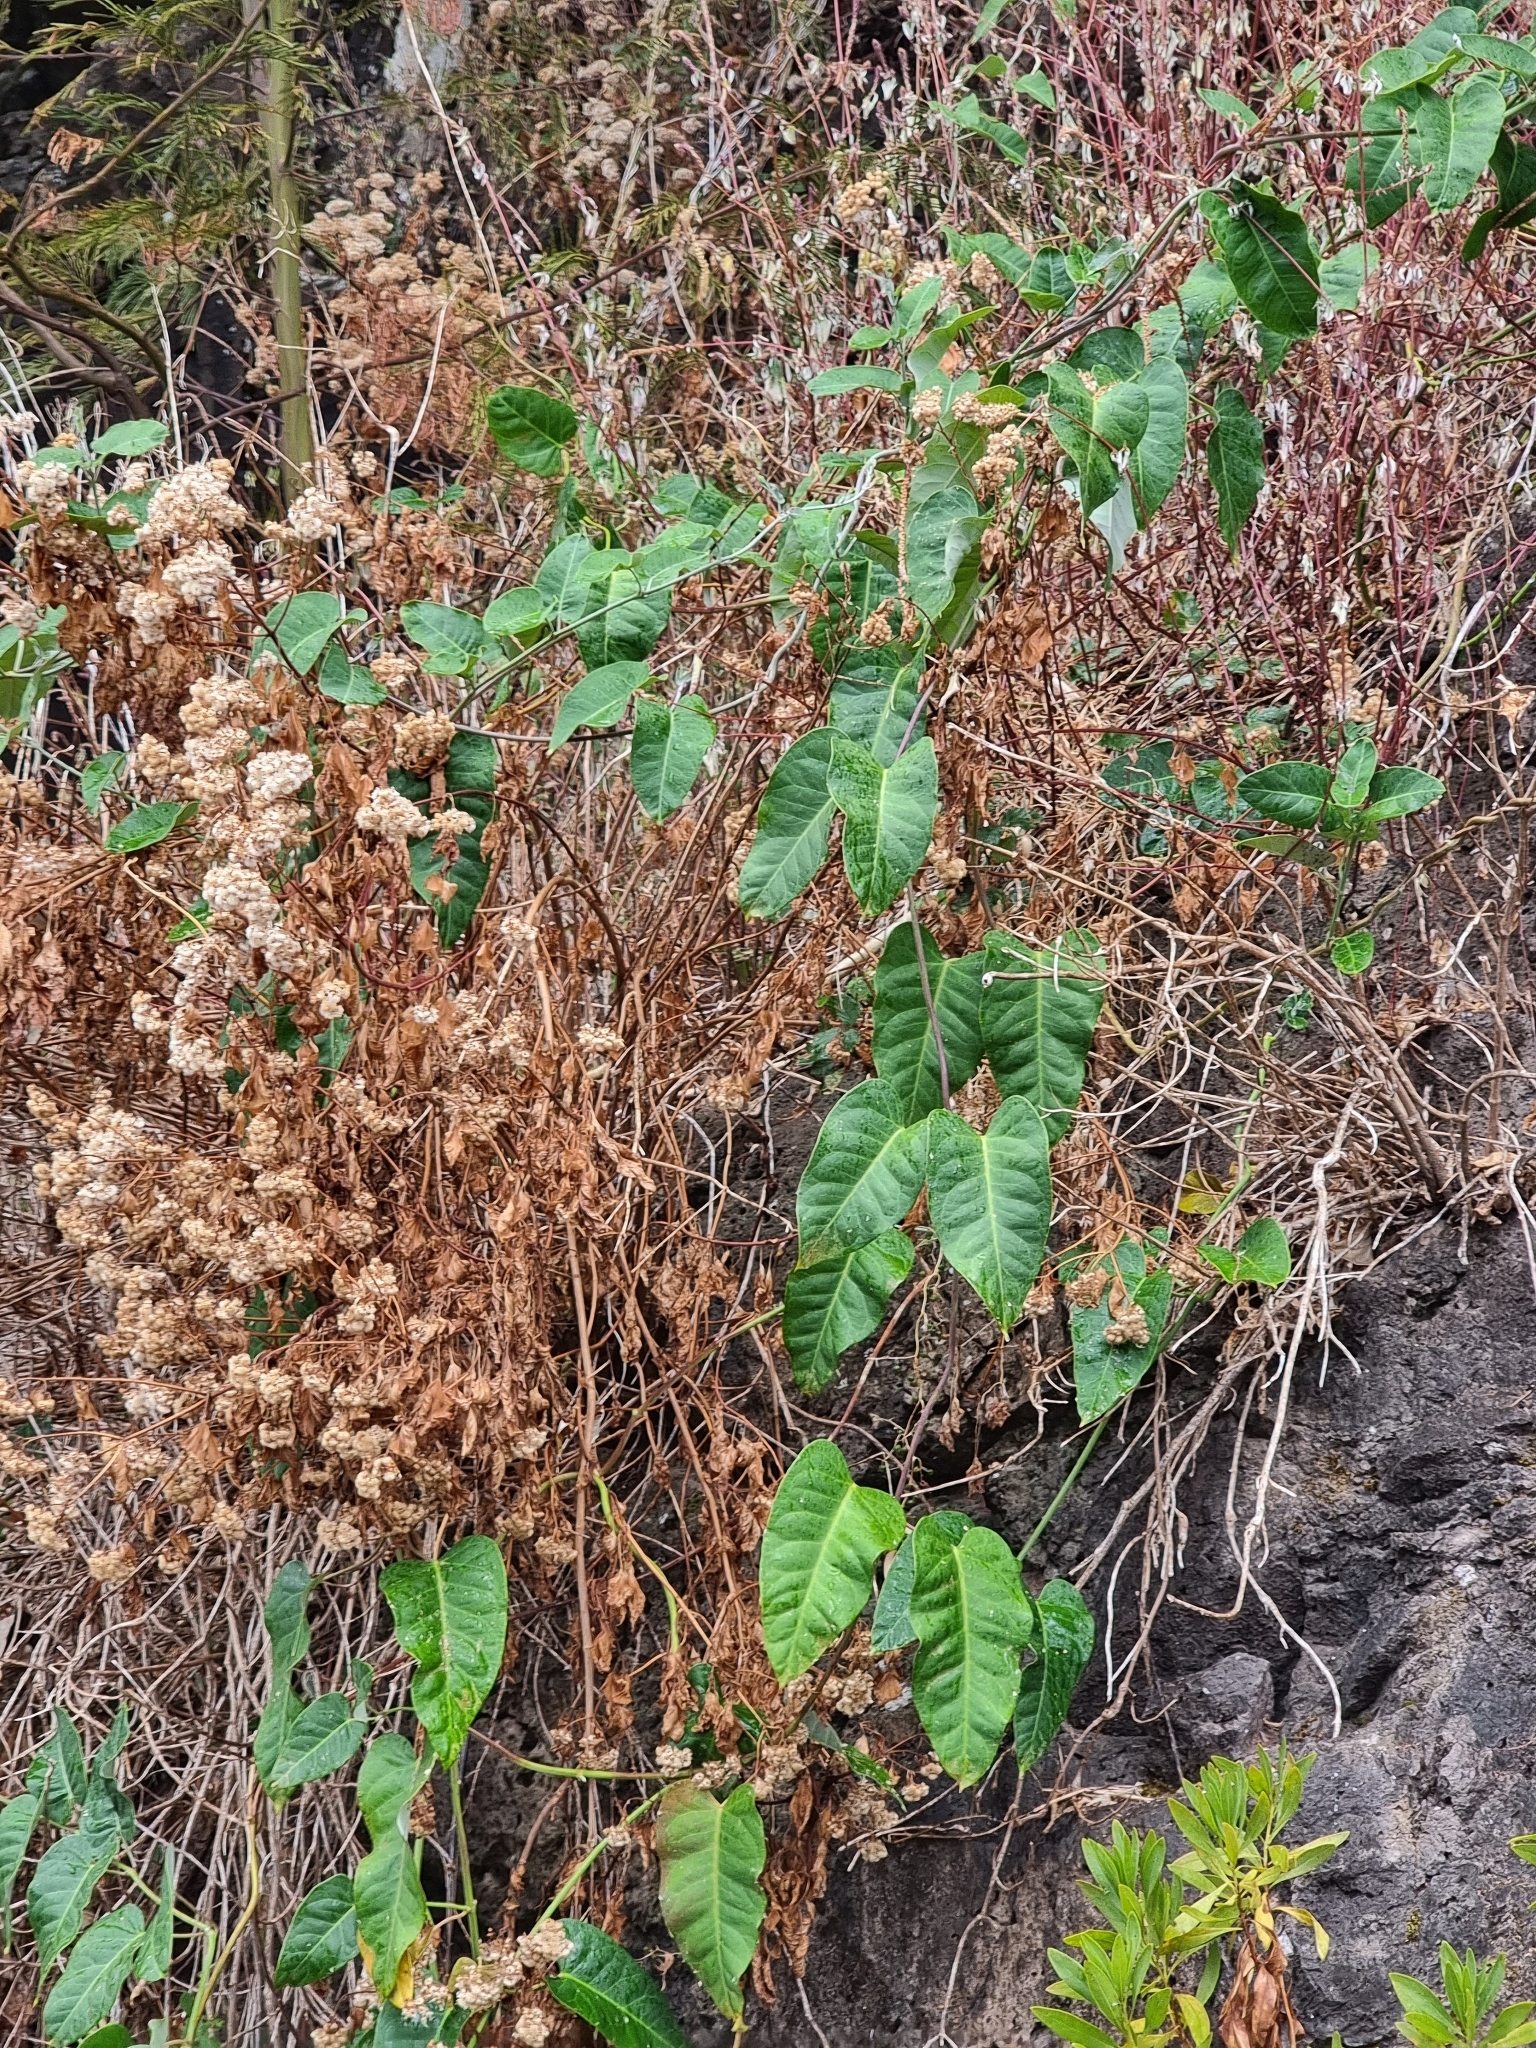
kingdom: Plantae
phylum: Tracheophyta
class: Magnoliopsida
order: Gentianales
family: Apocynaceae
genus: Araujia
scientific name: Araujia sericifera
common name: White bladderflower
